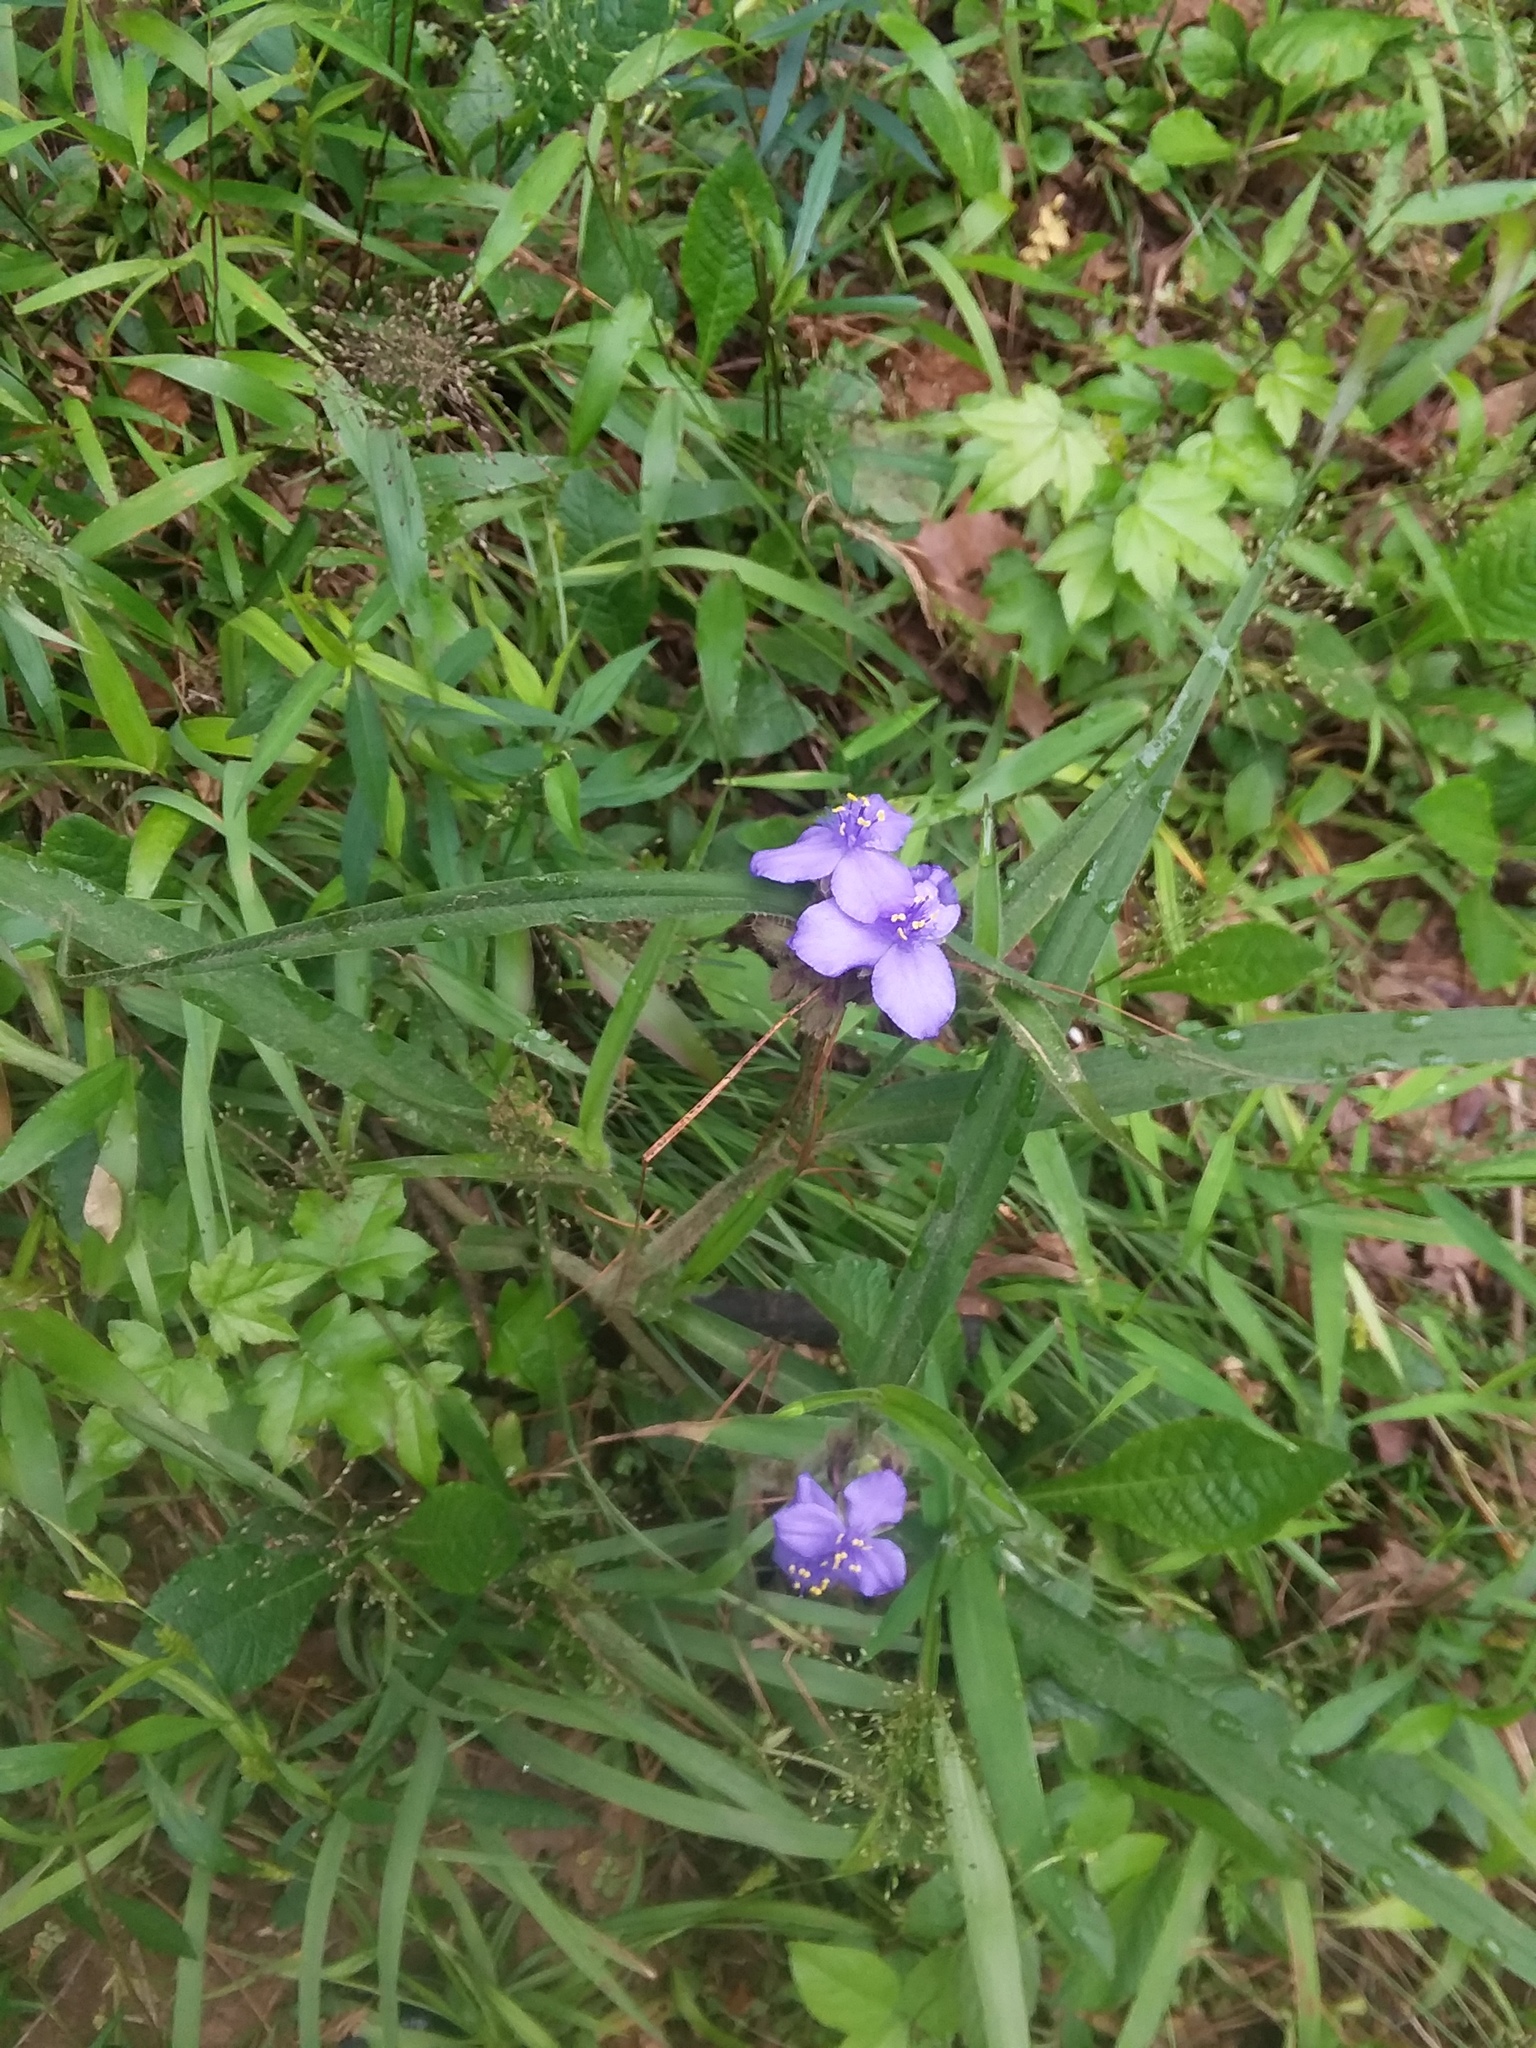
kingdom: Plantae
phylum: Tracheophyta
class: Liliopsida
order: Commelinales
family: Commelinaceae
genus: Tradescantia
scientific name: Tradescantia hirsutiflora
